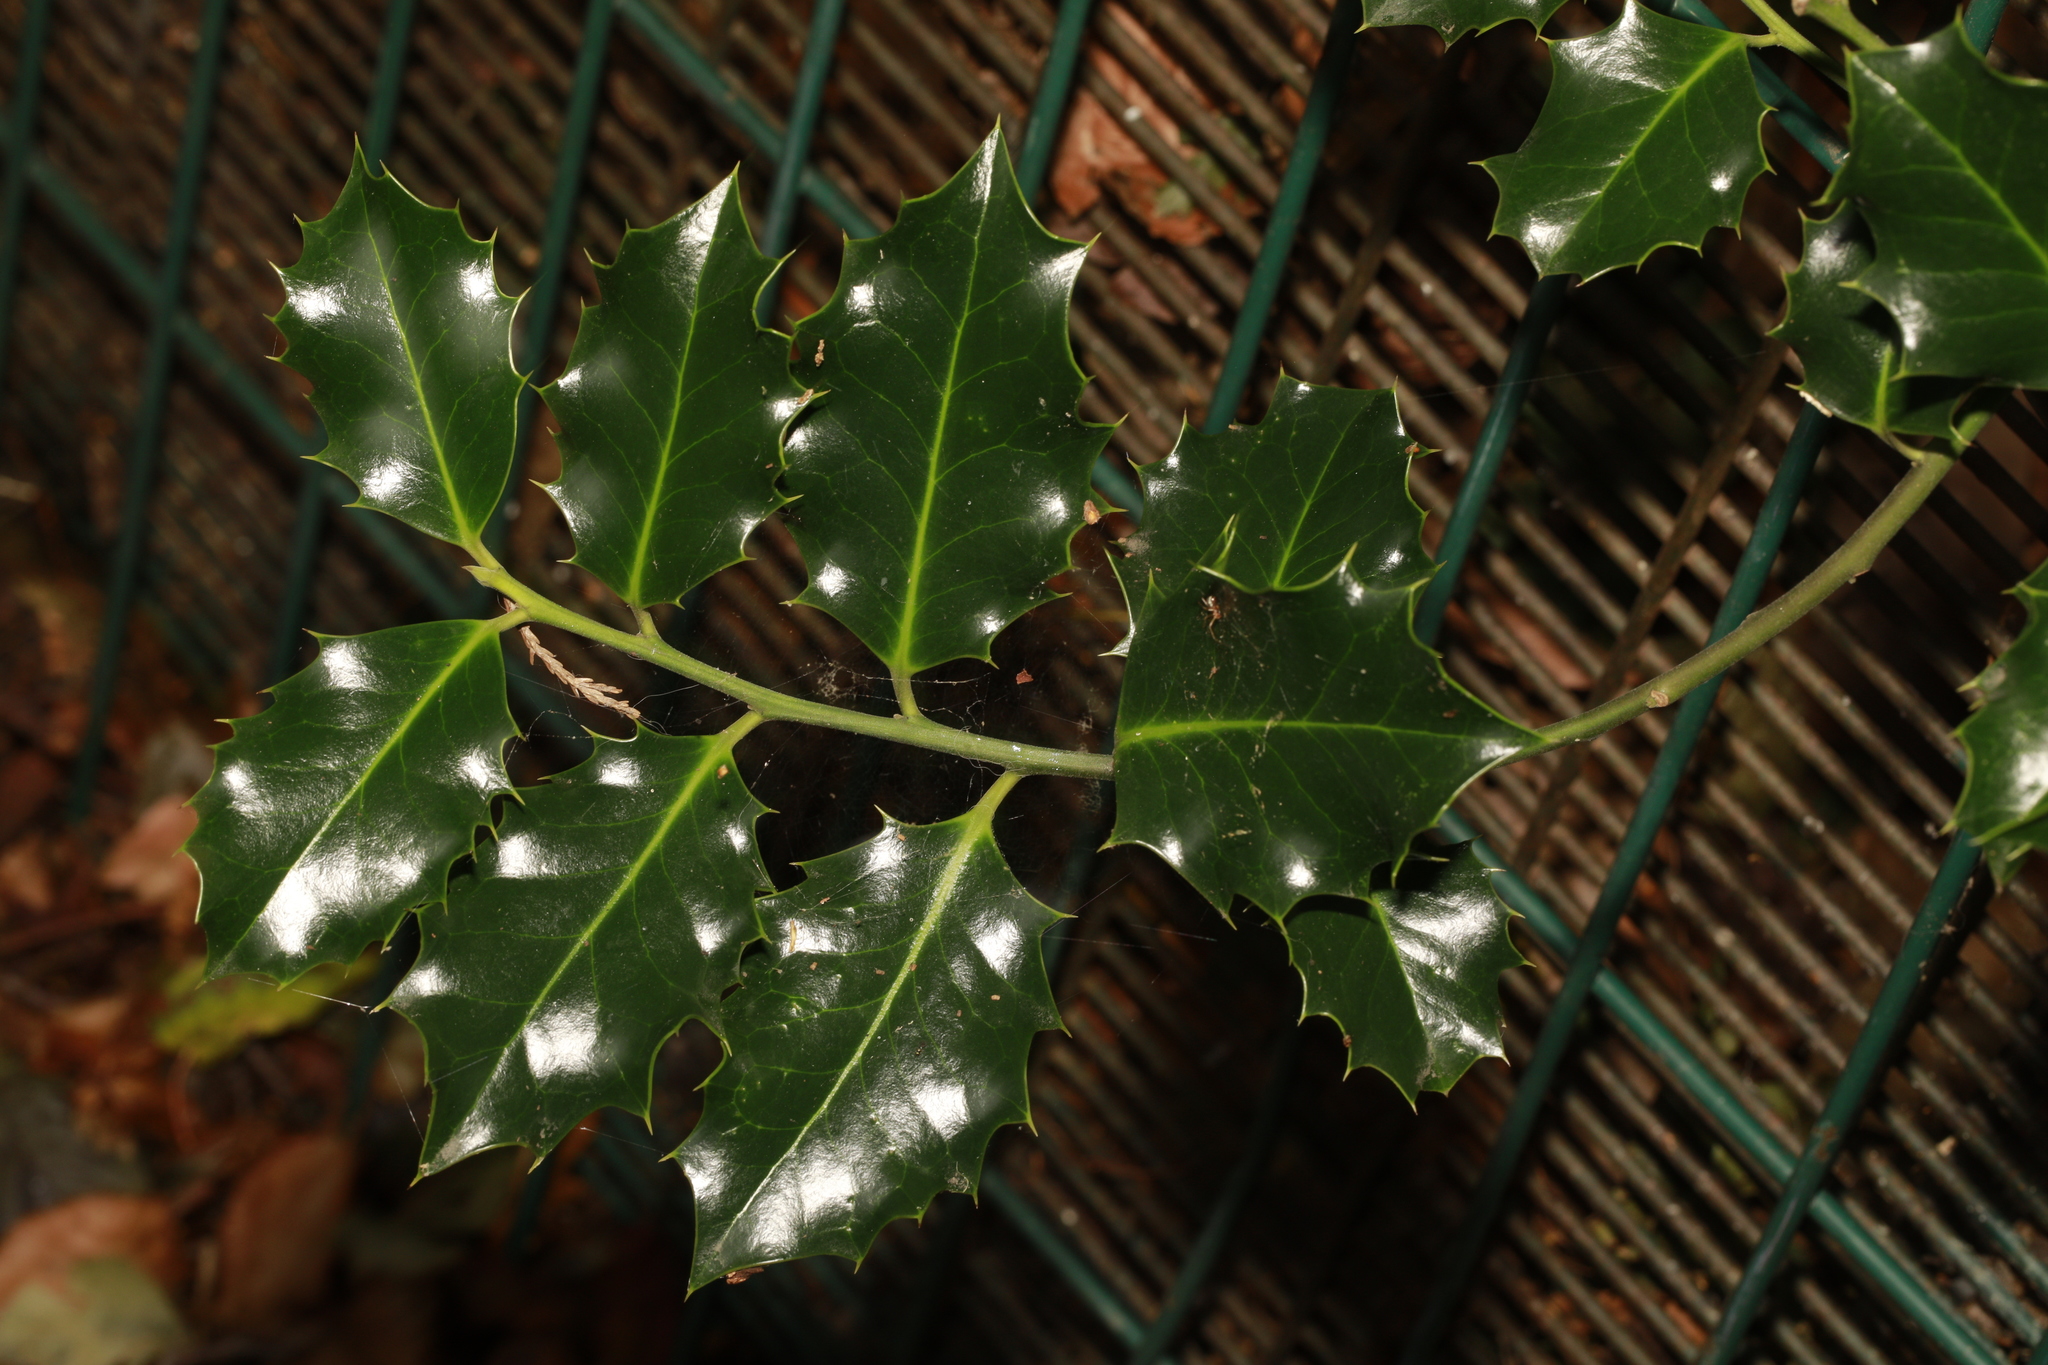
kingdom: Plantae
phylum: Tracheophyta
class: Magnoliopsida
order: Aquifoliales
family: Aquifoliaceae
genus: Ilex
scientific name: Ilex aquifolium
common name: English holly
